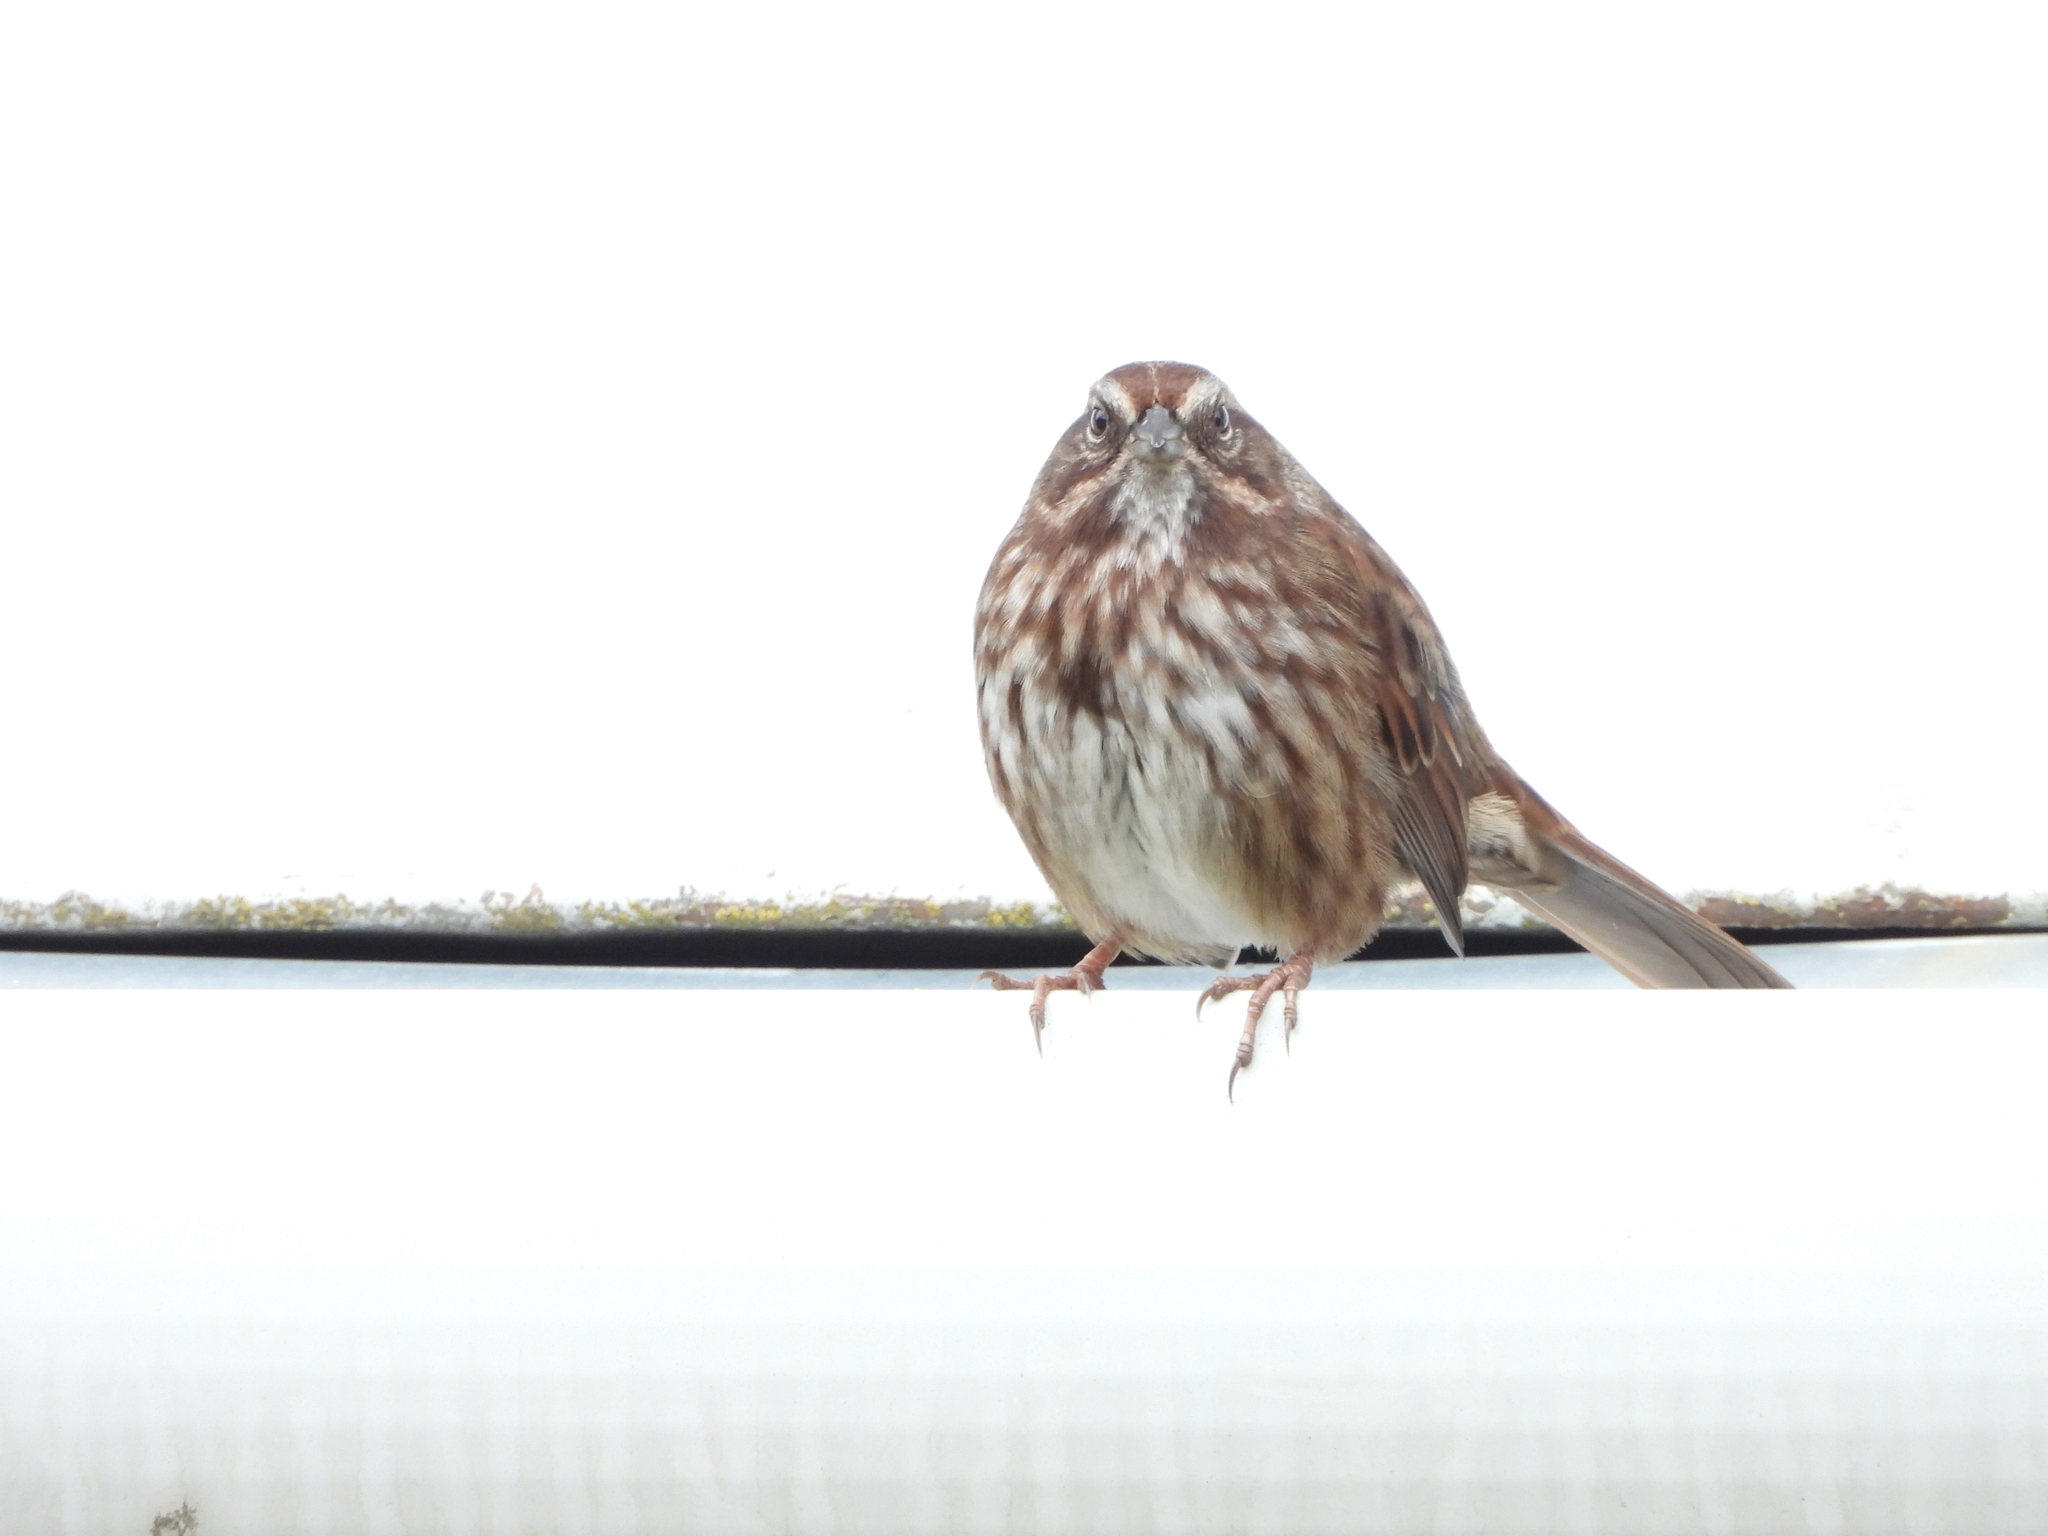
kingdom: Animalia
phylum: Chordata
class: Aves
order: Passeriformes
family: Passerellidae
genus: Melospiza
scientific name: Melospiza melodia
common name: Song sparrow
